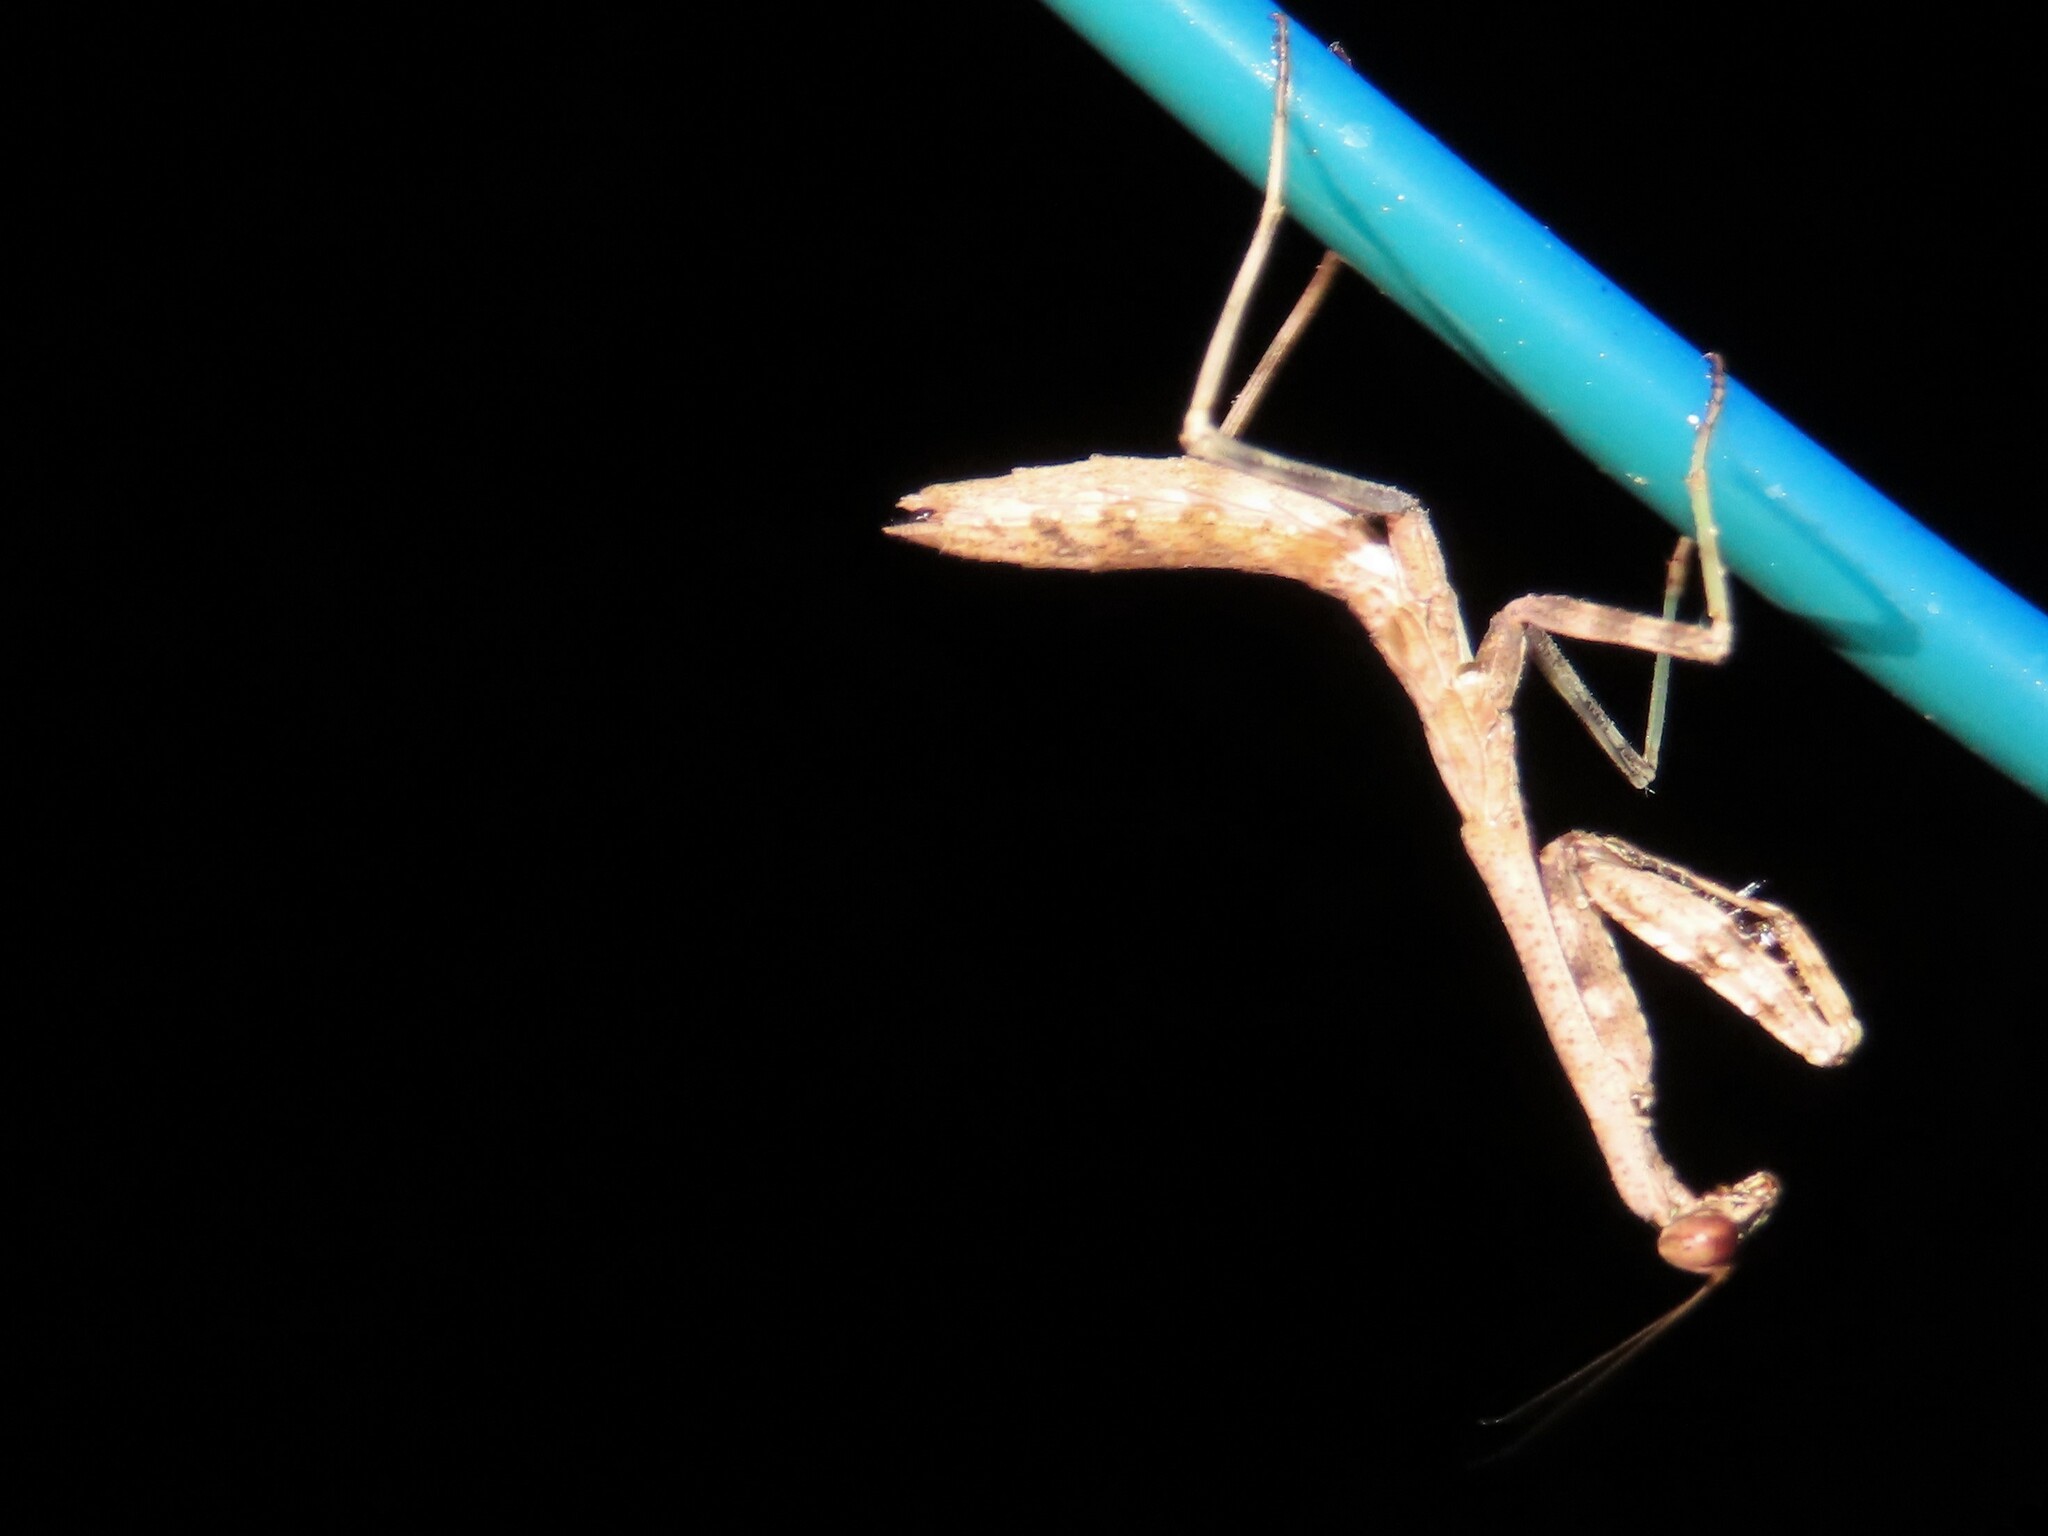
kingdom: Animalia
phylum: Arthropoda
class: Insecta
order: Mantodea
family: Mantidae
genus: Stagmomantis
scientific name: Stagmomantis carolina
